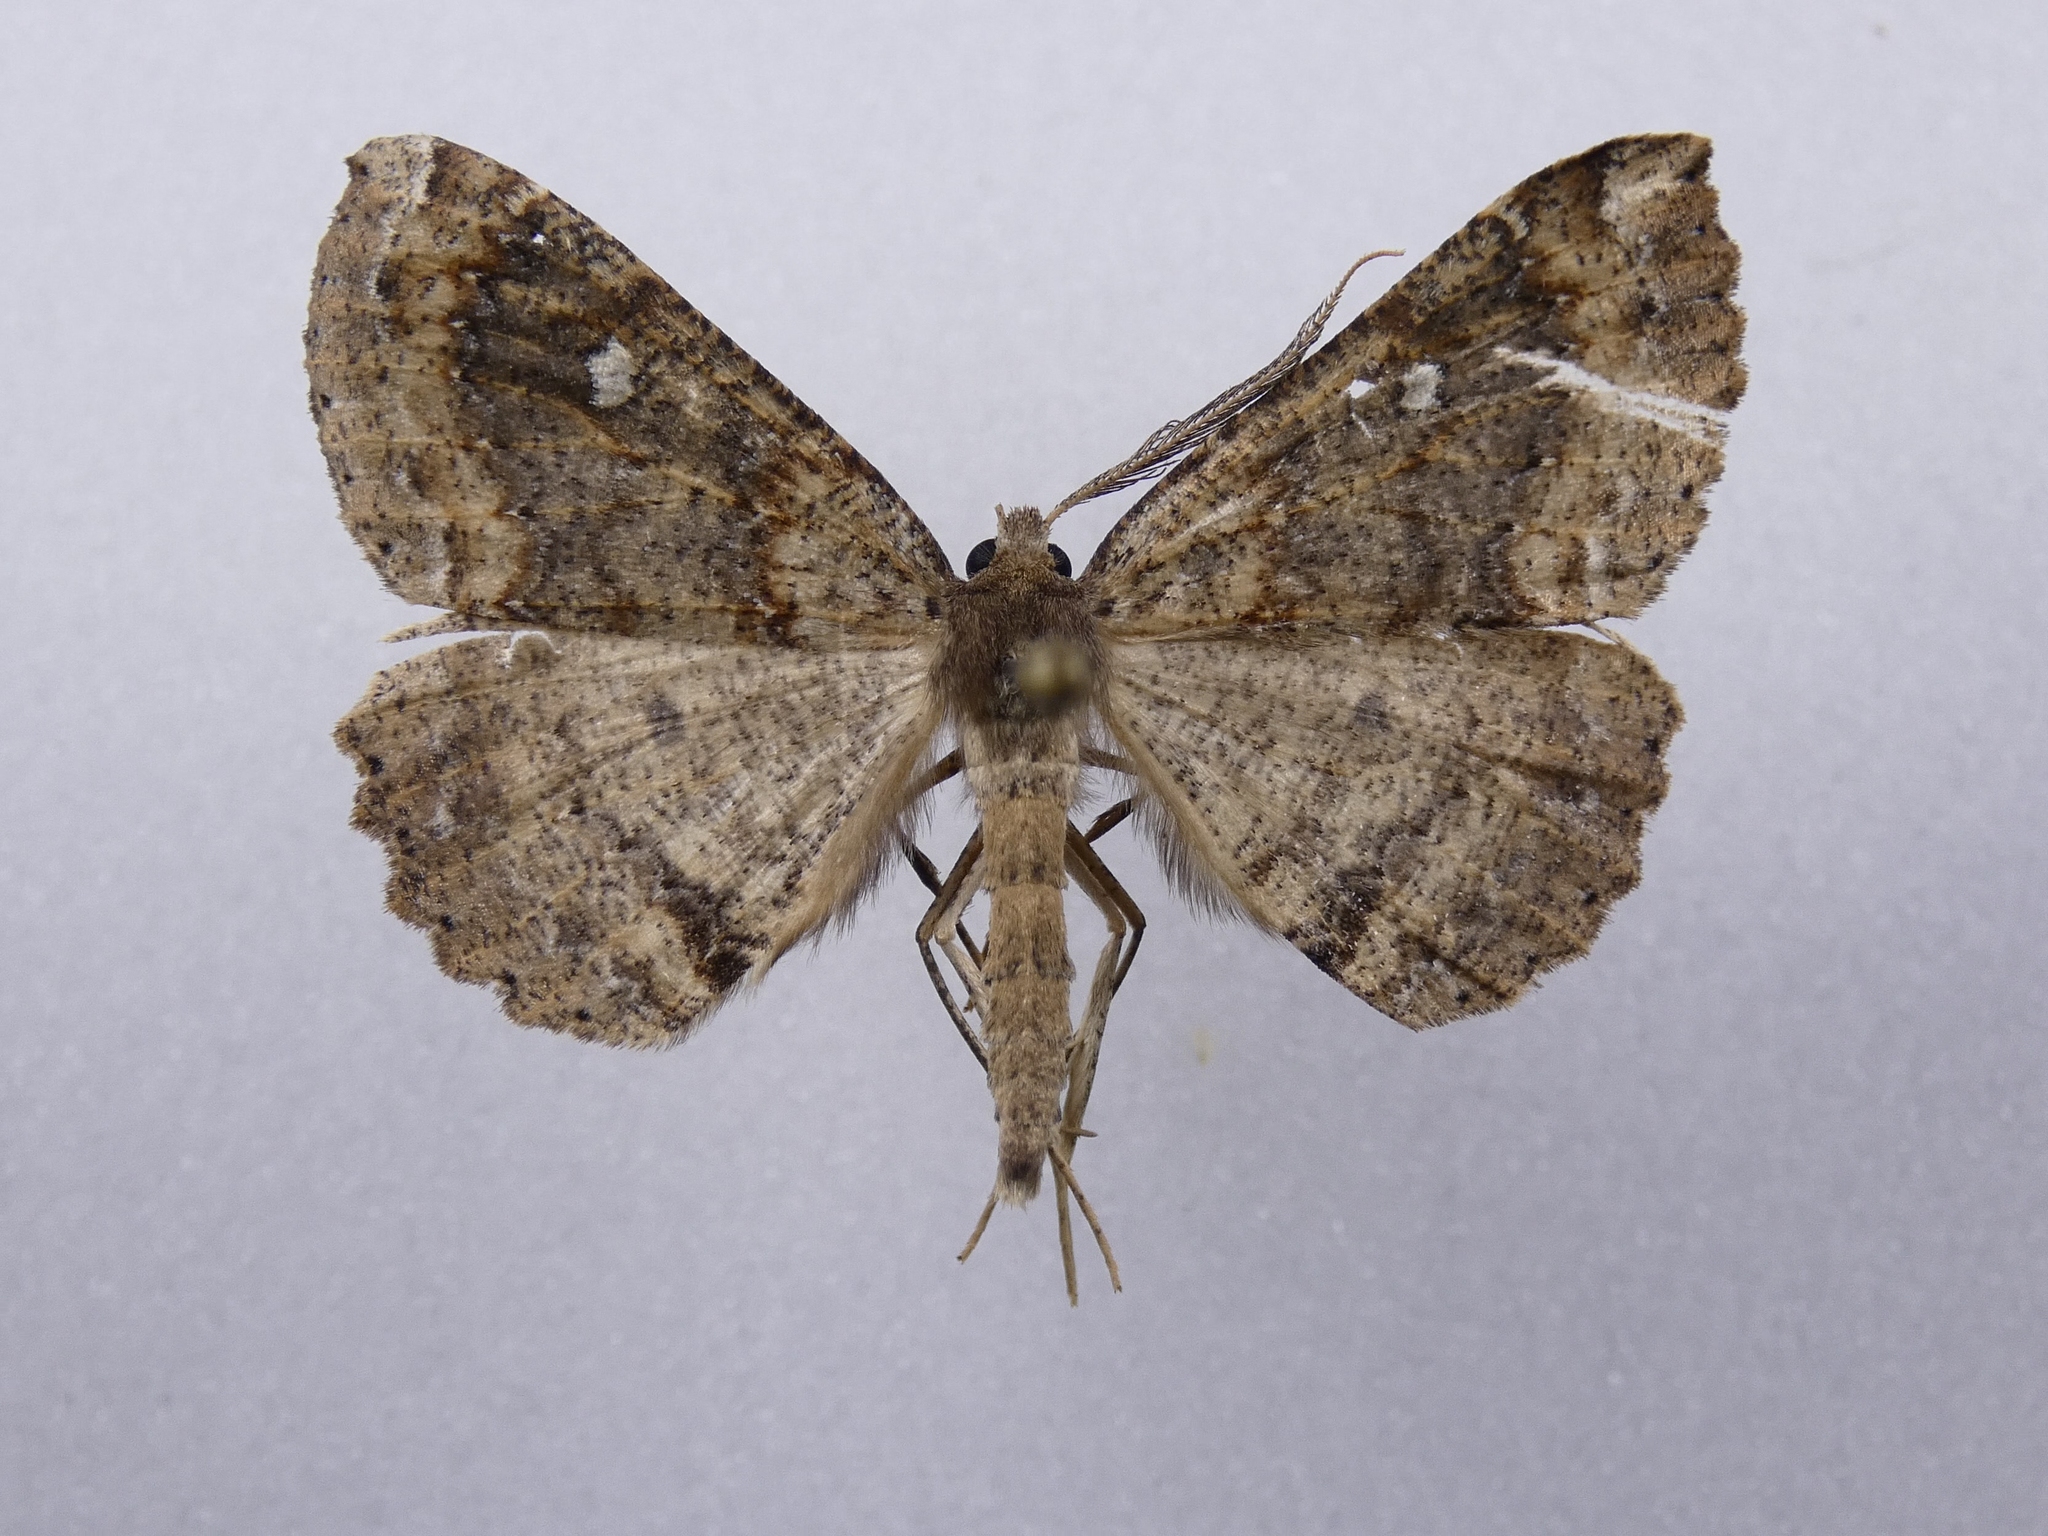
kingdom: Animalia
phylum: Arthropoda
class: Insecta
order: Lepidoptera
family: Geometridae
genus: Cleora
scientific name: Cleora scriptaria
